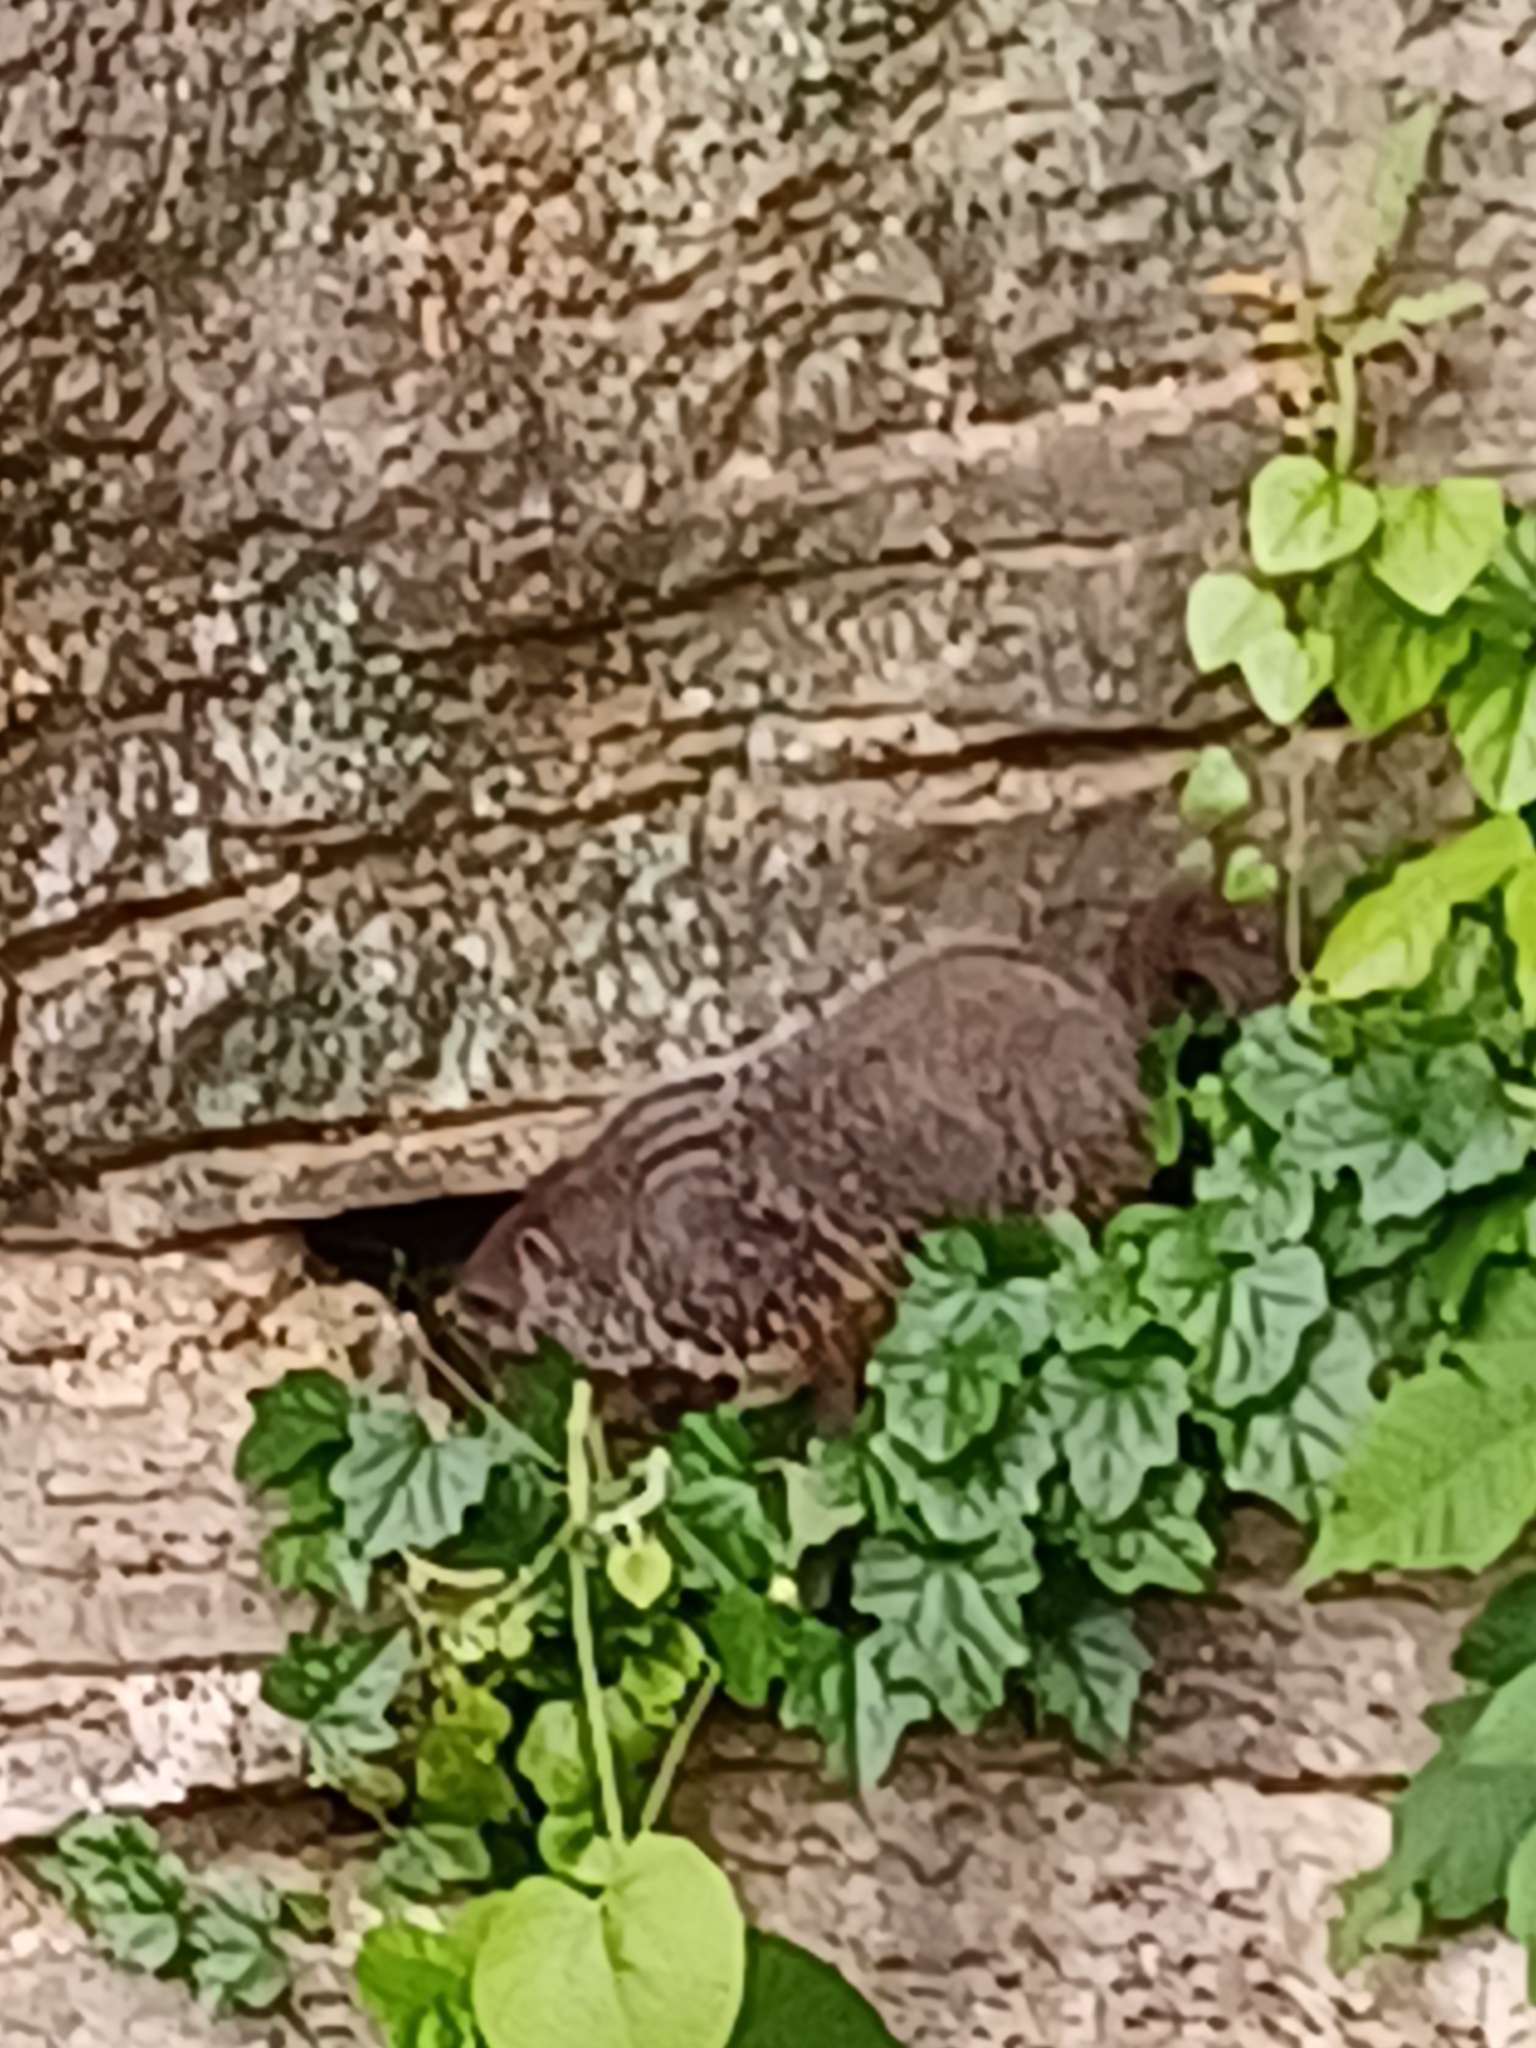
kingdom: Animalia
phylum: Chordata
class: Mammalia
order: Rodentia
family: Sciuridae
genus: Marmota
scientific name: Marmota monax
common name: Groundhog
